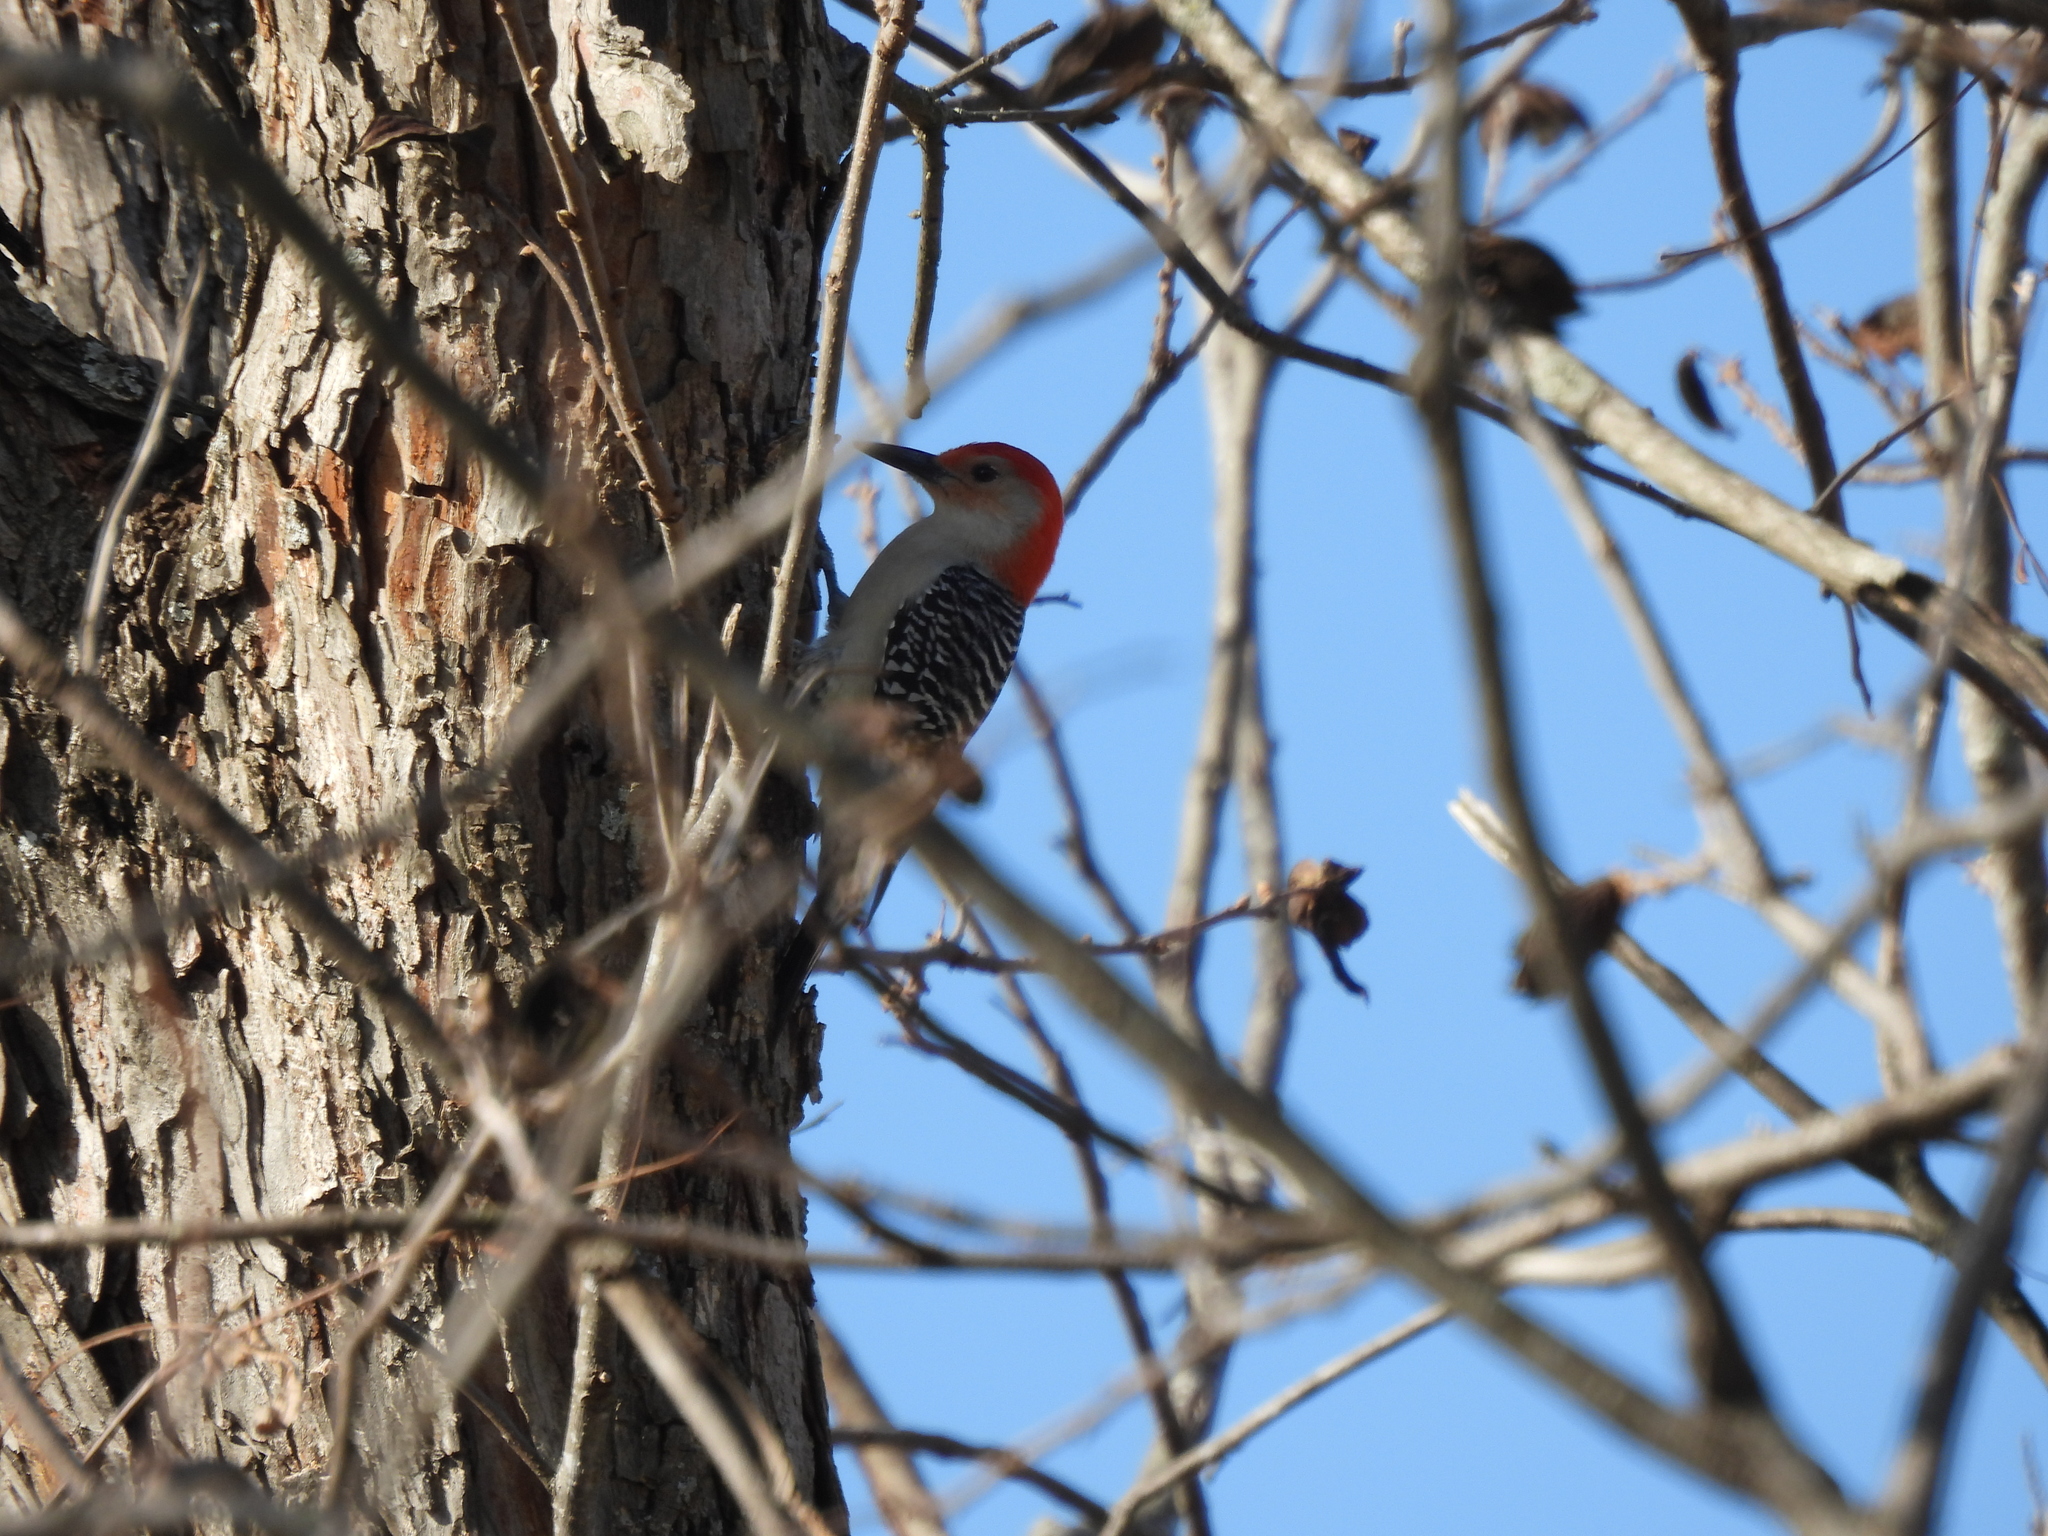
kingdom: Animalia
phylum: Chordata
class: Aves
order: Piciformes
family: Picidae
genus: Melanerpes
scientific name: Melanerpes carolinus
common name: Red-bellied woodpecker
